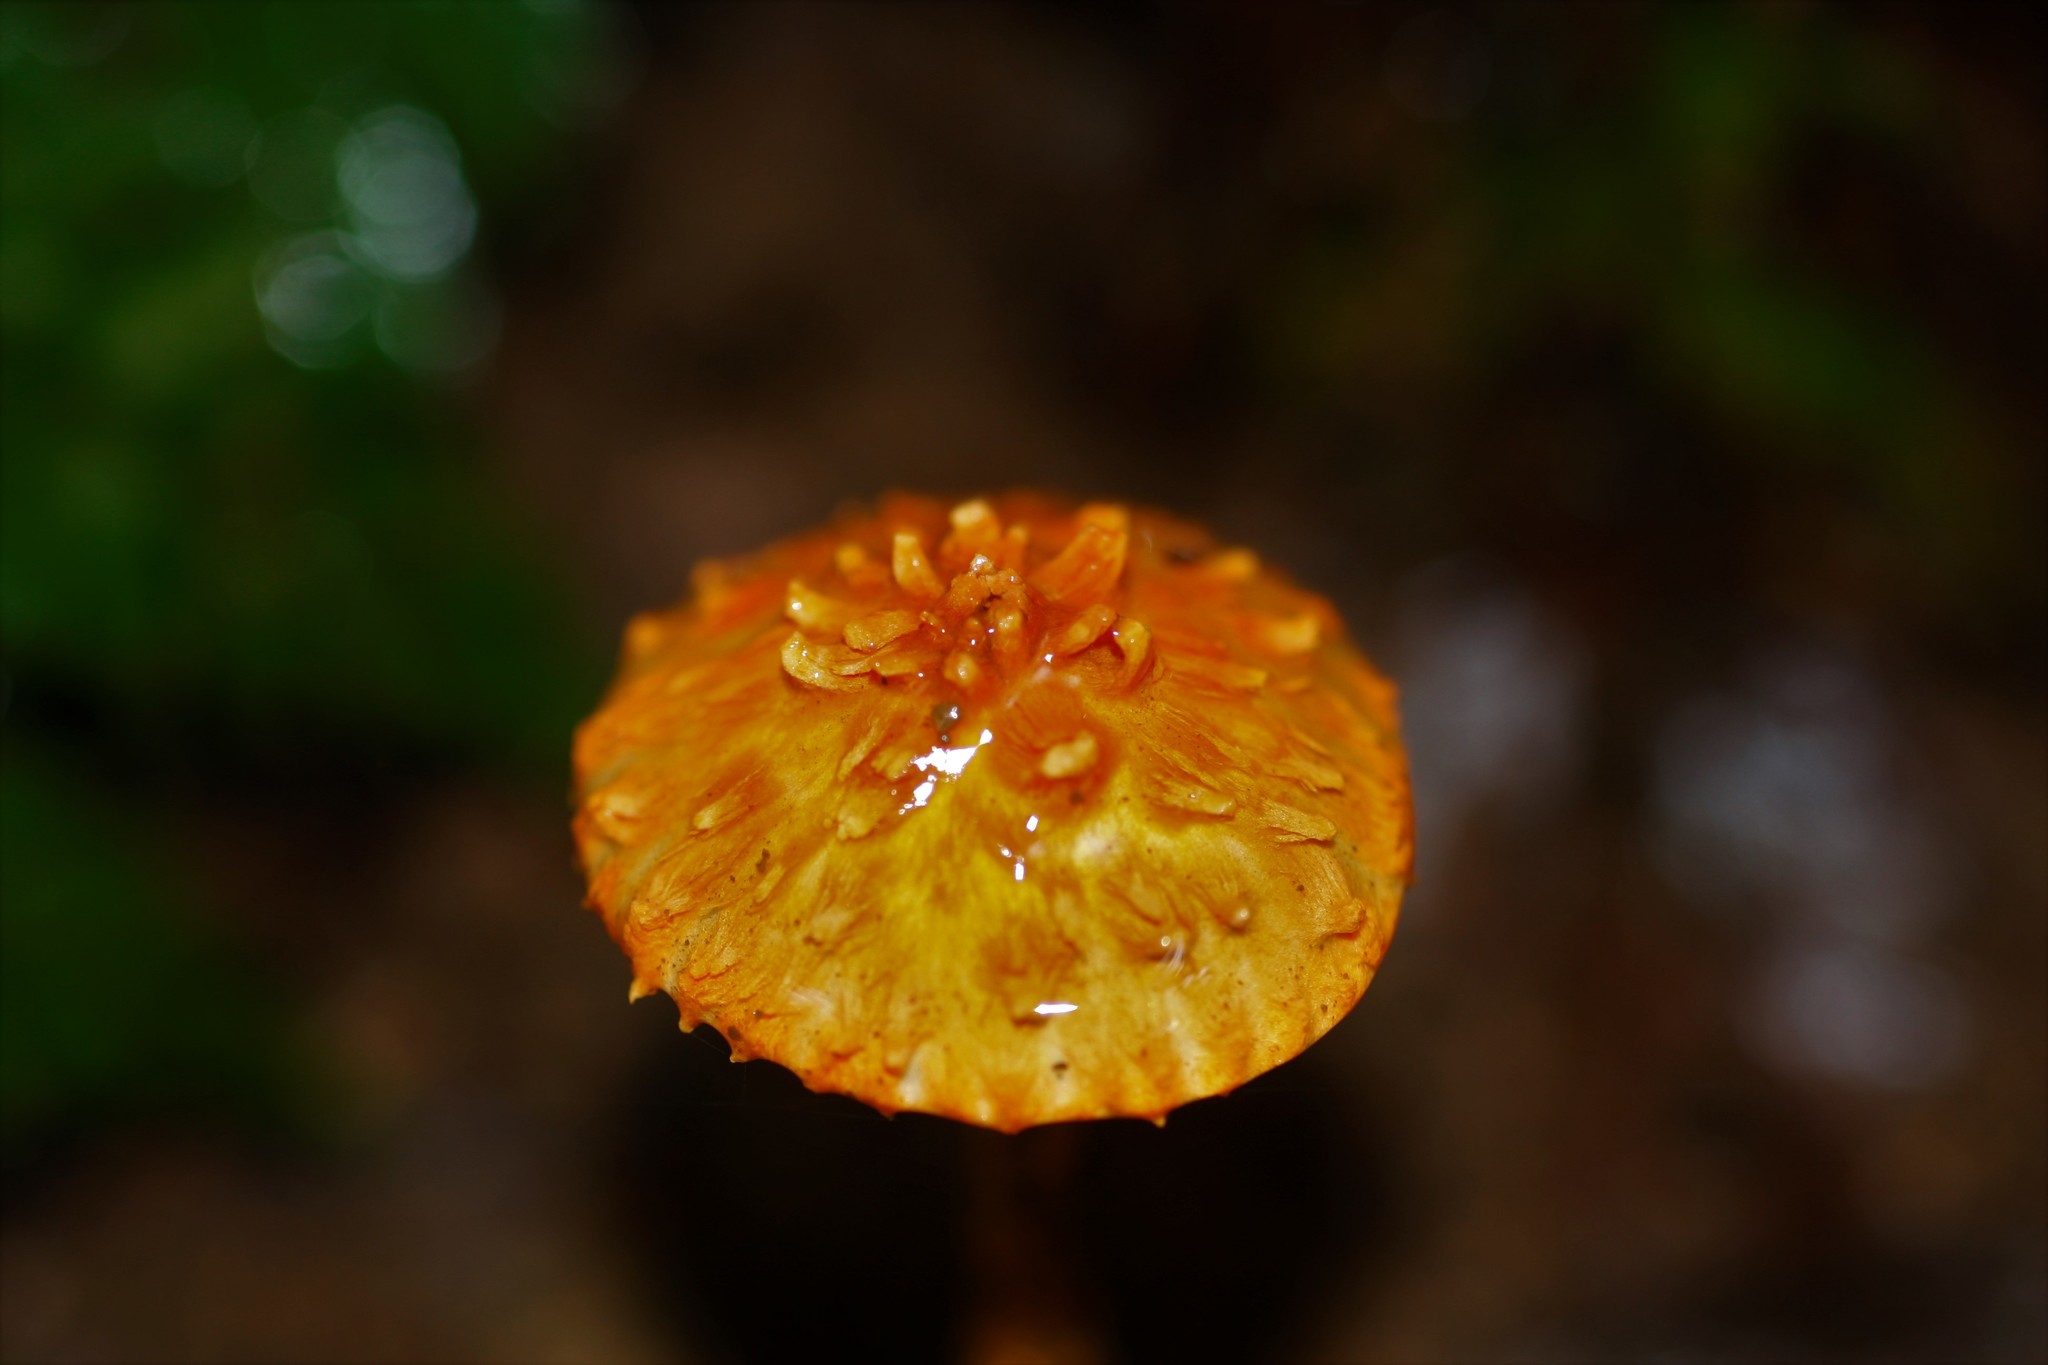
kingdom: Fungi
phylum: Basidiomycota
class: Agaricomycetes
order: Agaricales
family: Agaricaceae
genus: Agaricus
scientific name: Agaricus trisulphuratus
